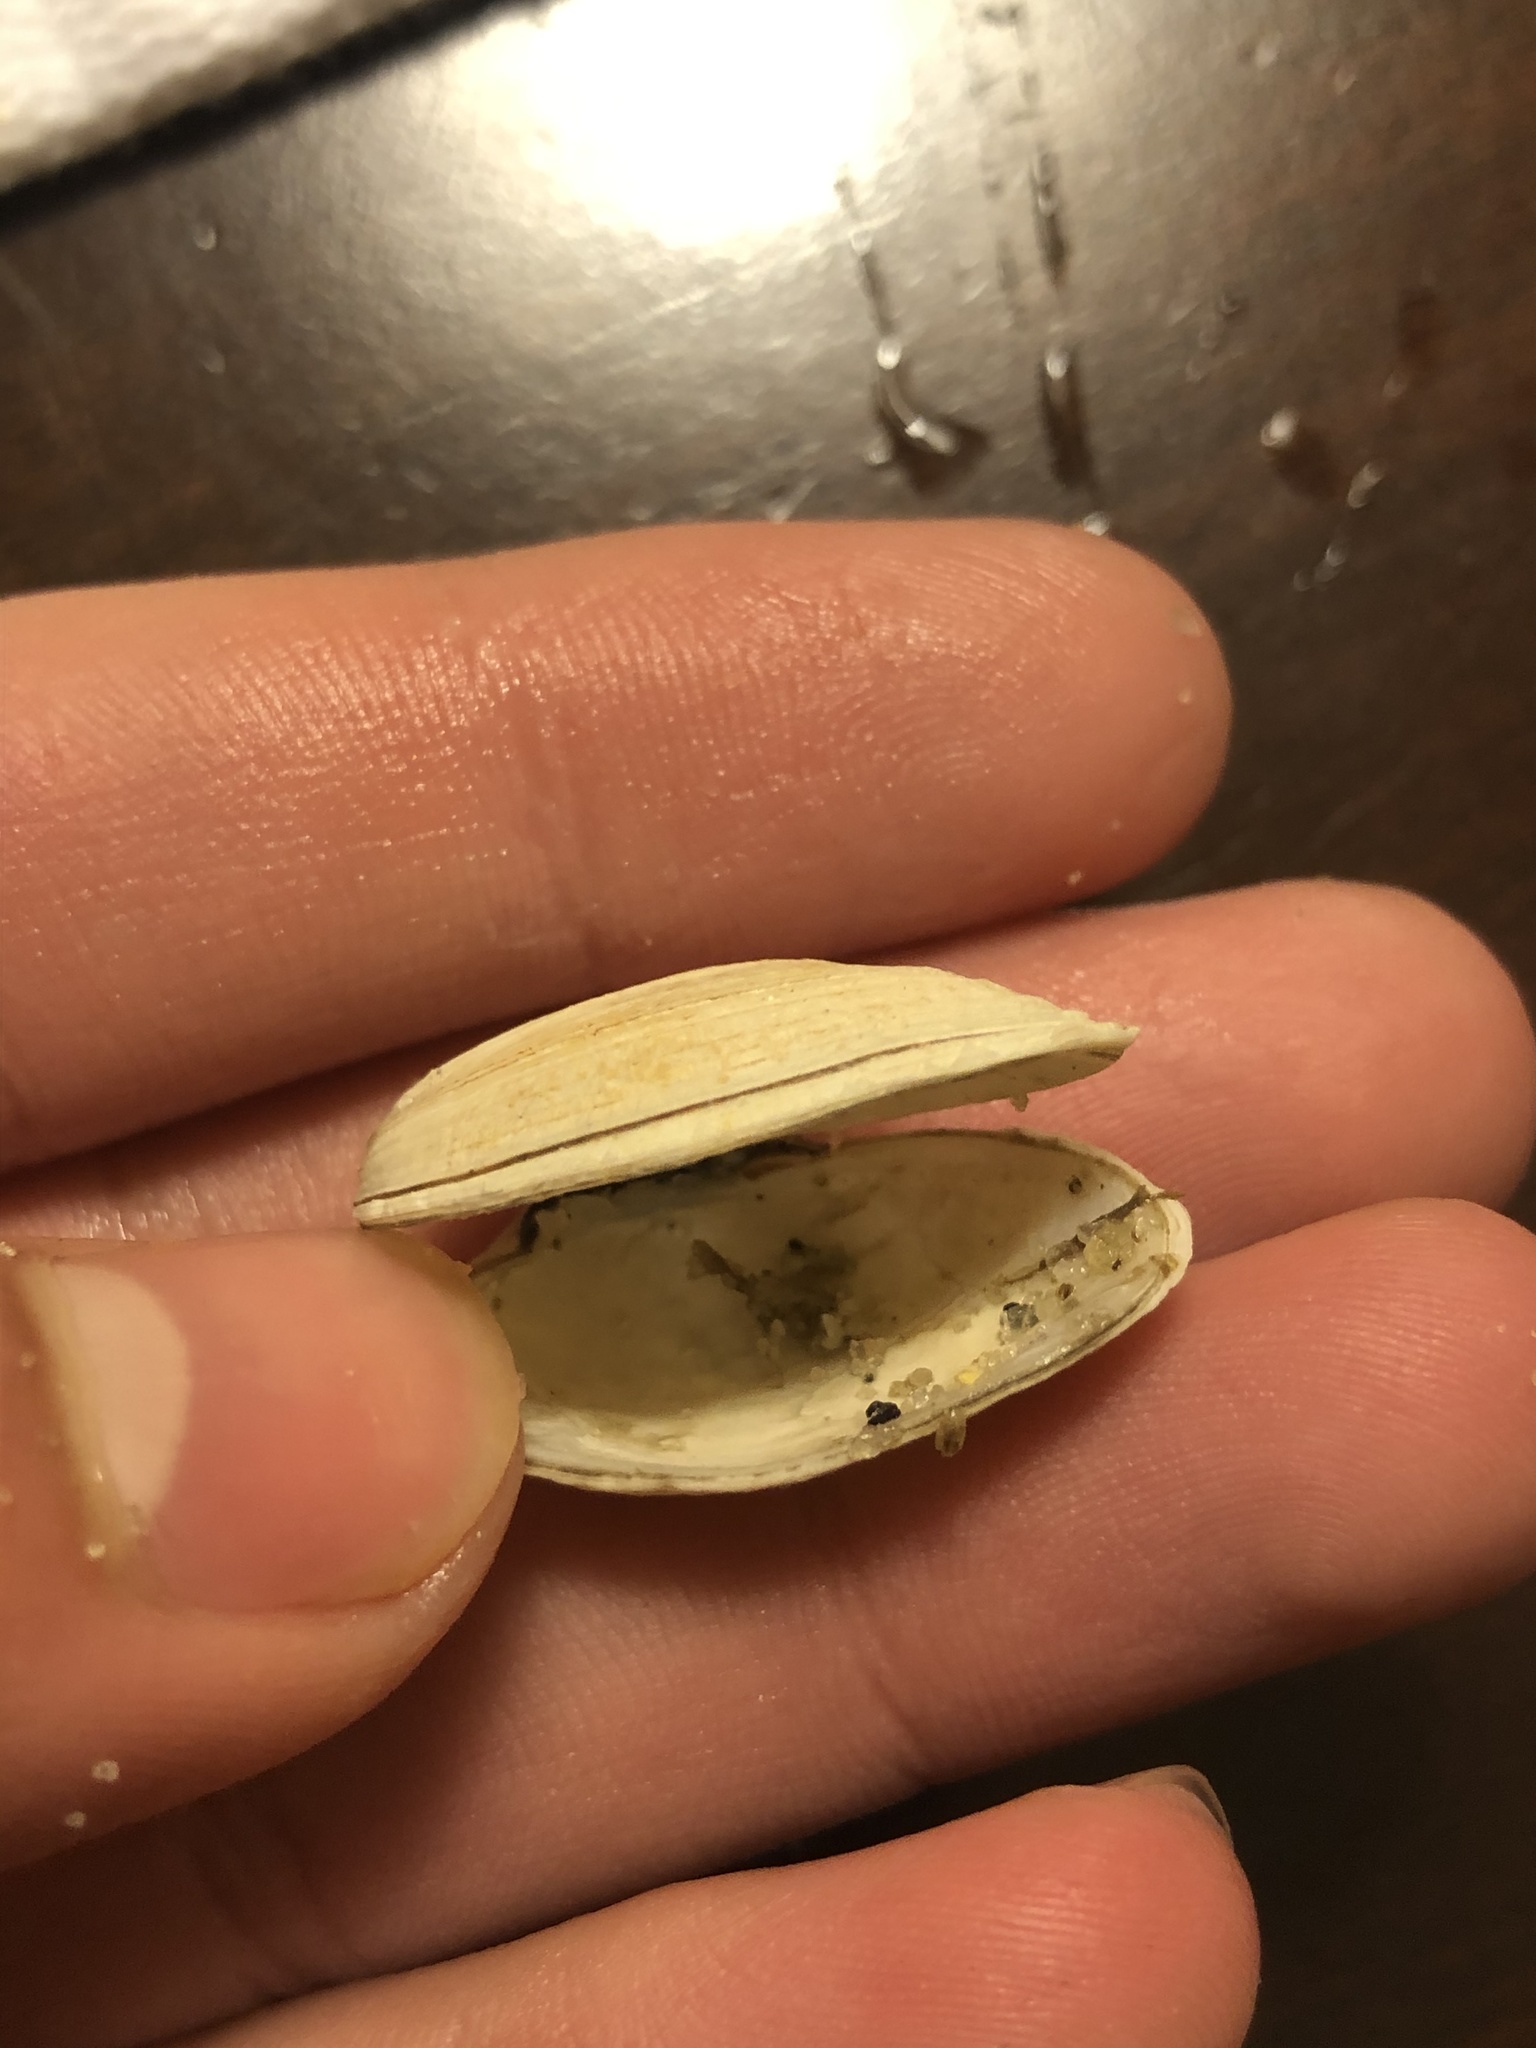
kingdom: Animalia
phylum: Mollusca
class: Bivalvia
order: Venerida
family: Veneridae
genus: Petricola
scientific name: Petricola carditoides
